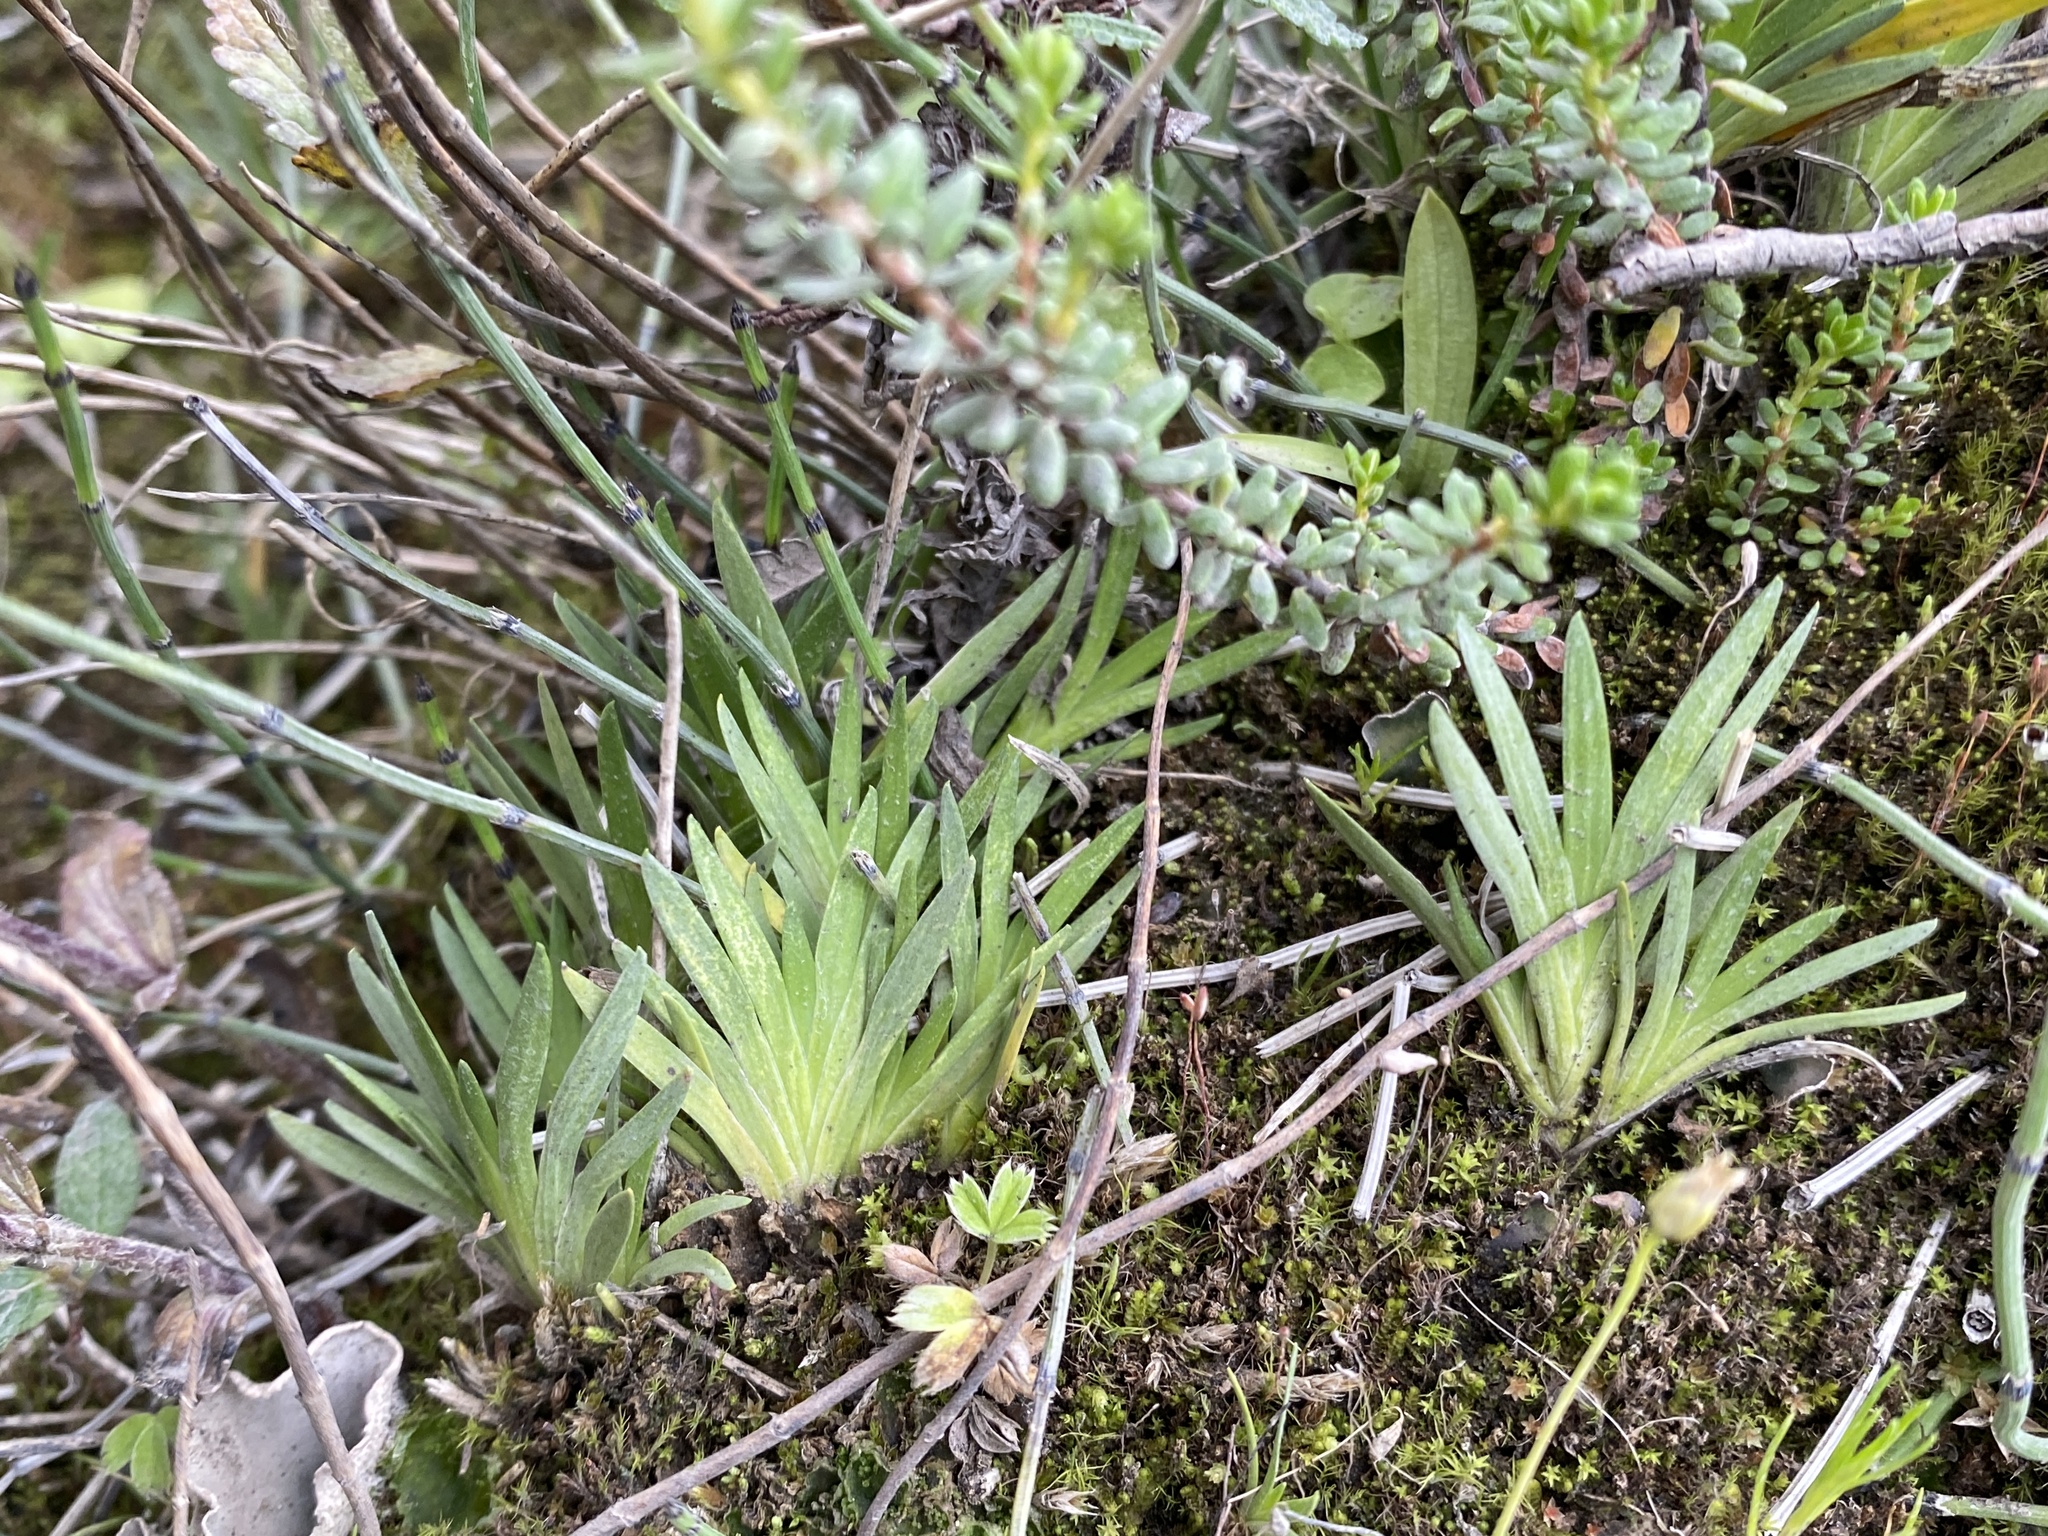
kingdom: Plantae
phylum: Tracheophyta
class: Liliopsida
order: Alismatales
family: Tofieldiaceae
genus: Tofieldia
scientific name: Tofieldia pusilla
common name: Scottish false asphodel
